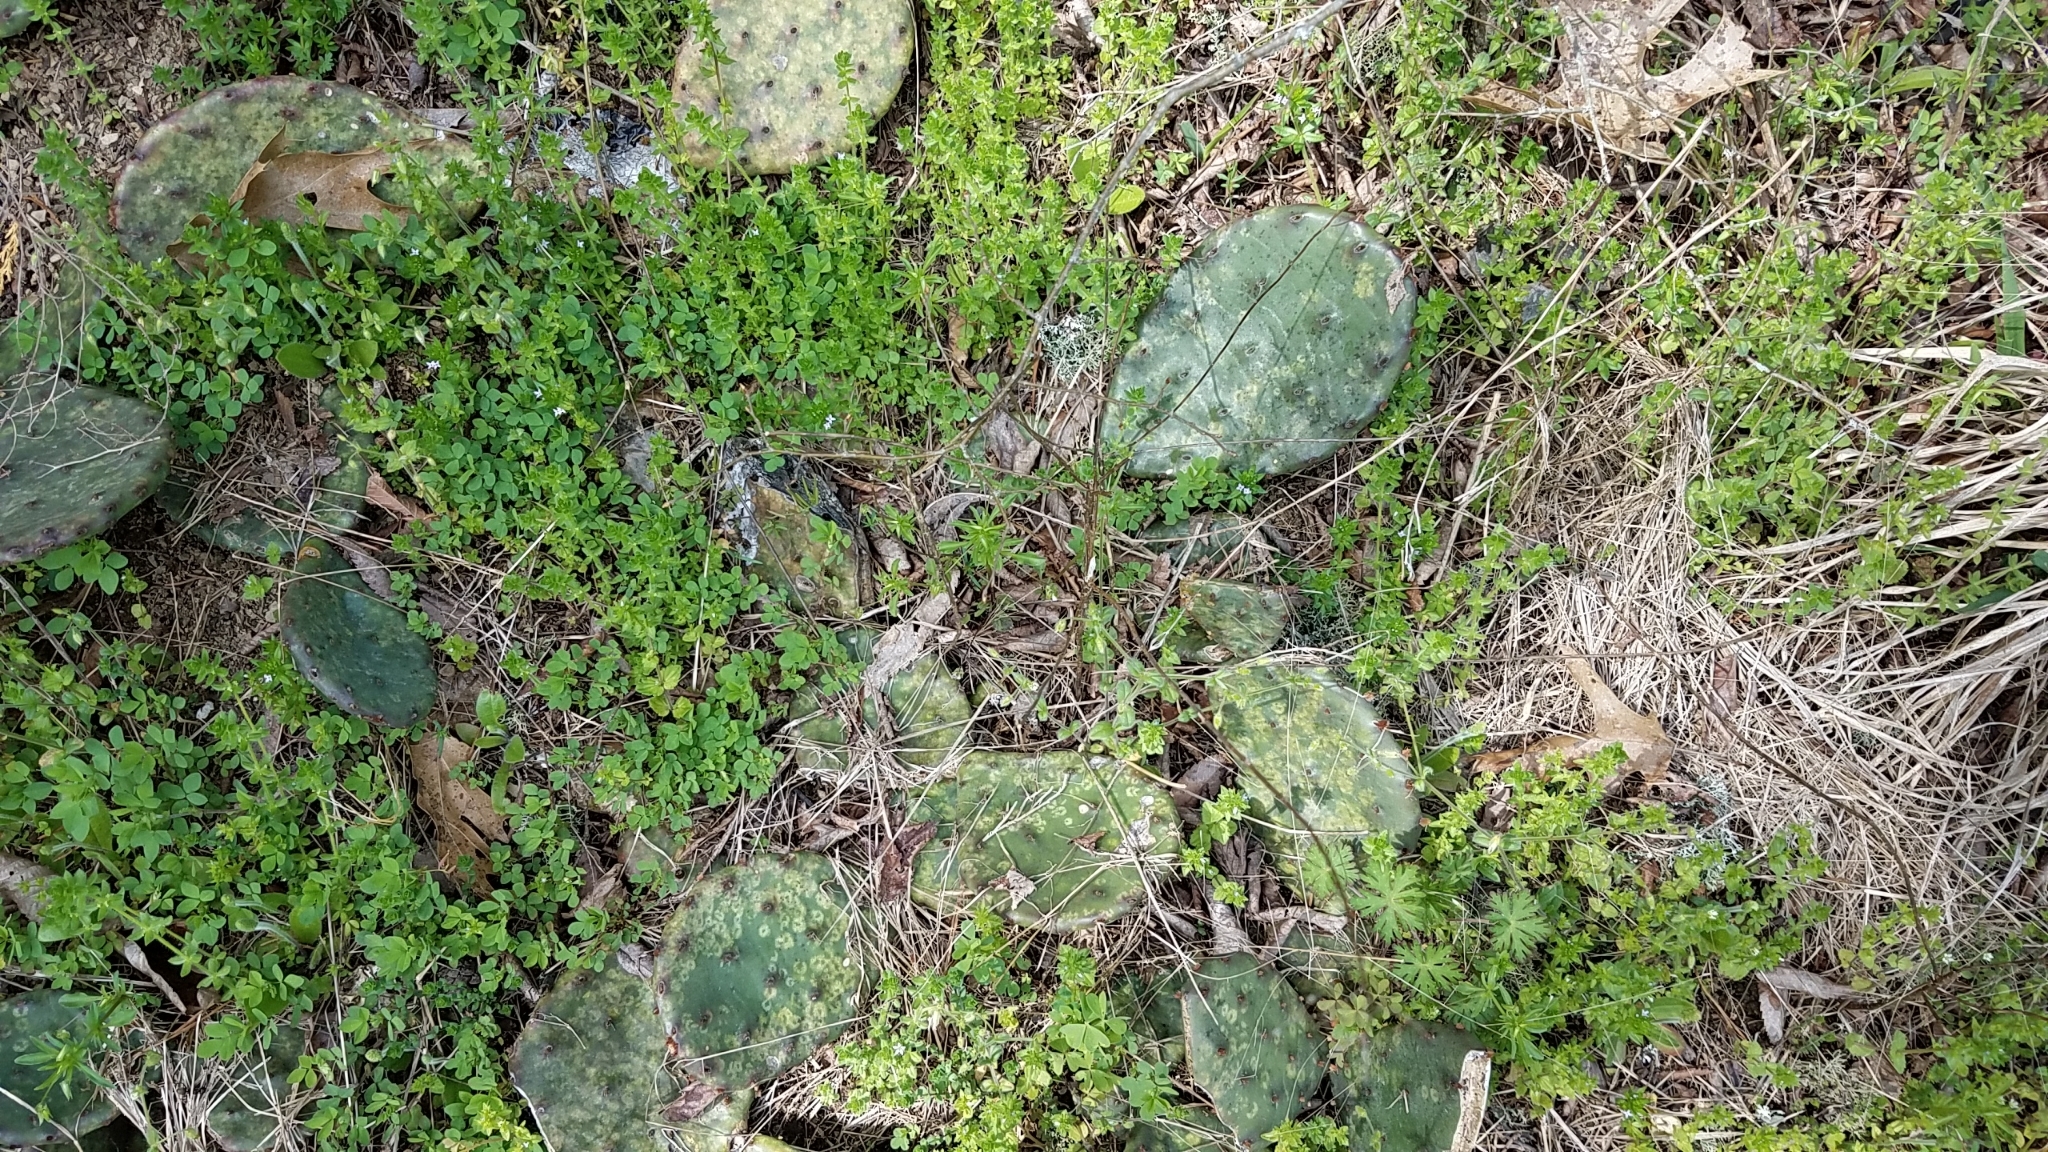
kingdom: Plantae
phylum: Tracheophyta
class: Magnoliopsida
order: Caryophyllales
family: Cactaceae
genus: Opuntia
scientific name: Opuntia humifusa
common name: Eastern prickly-pear
